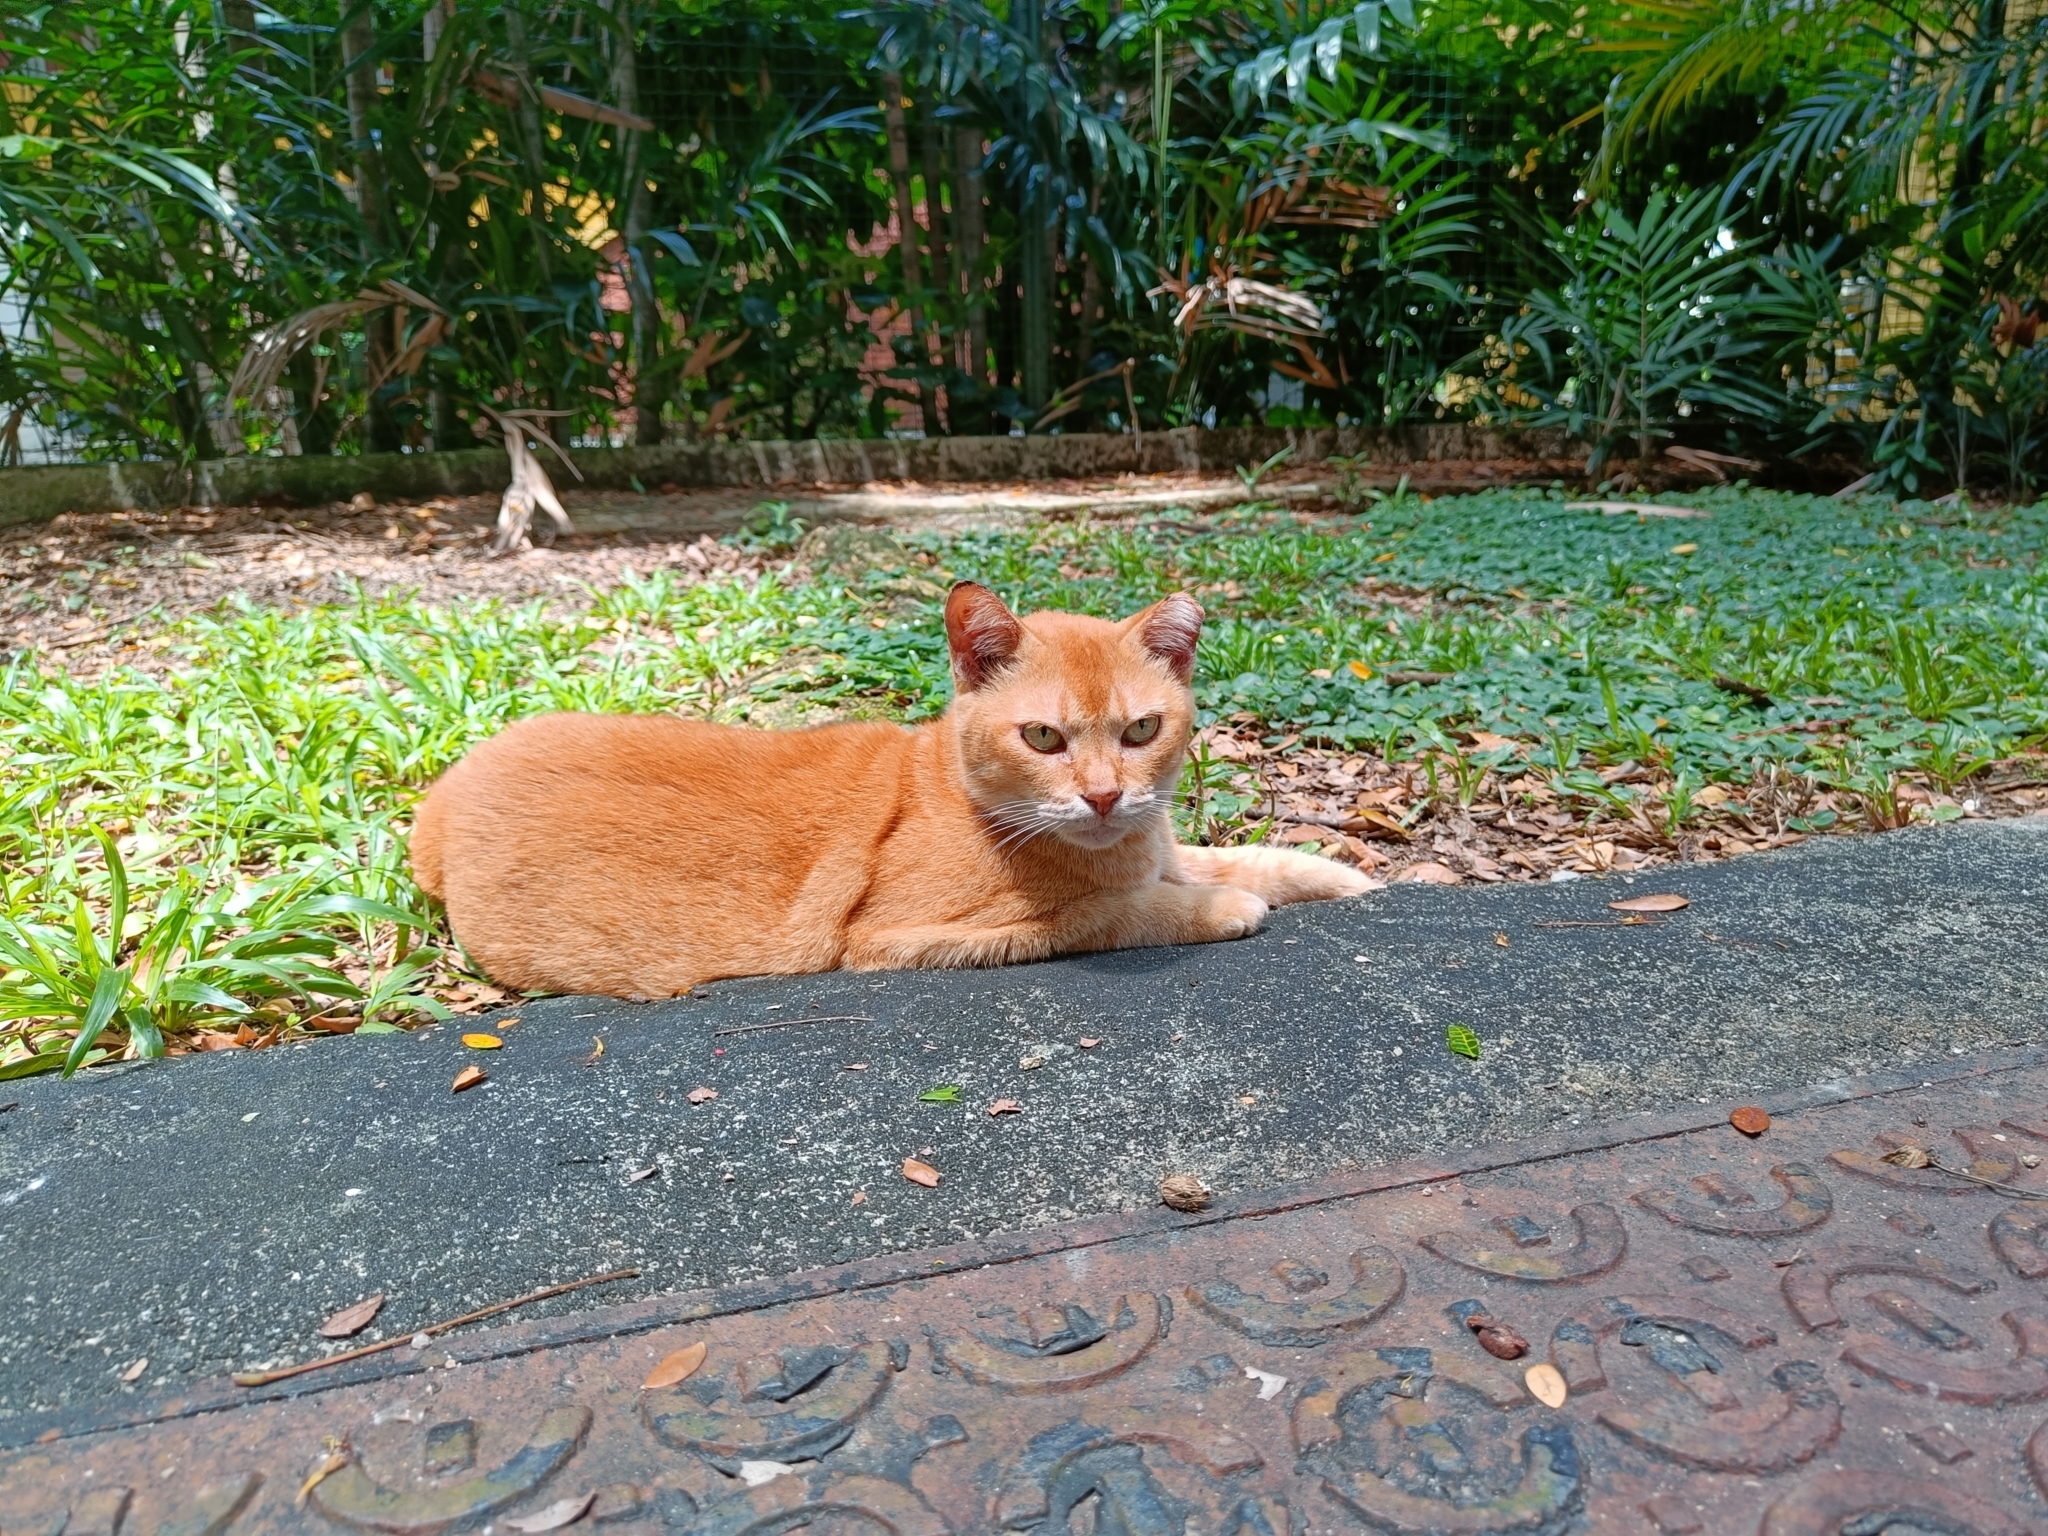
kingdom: Animalia
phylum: Chordata
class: Mammalia
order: Carnivora
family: Felidae
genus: Felis
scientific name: Felis catus
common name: Domestic cat
